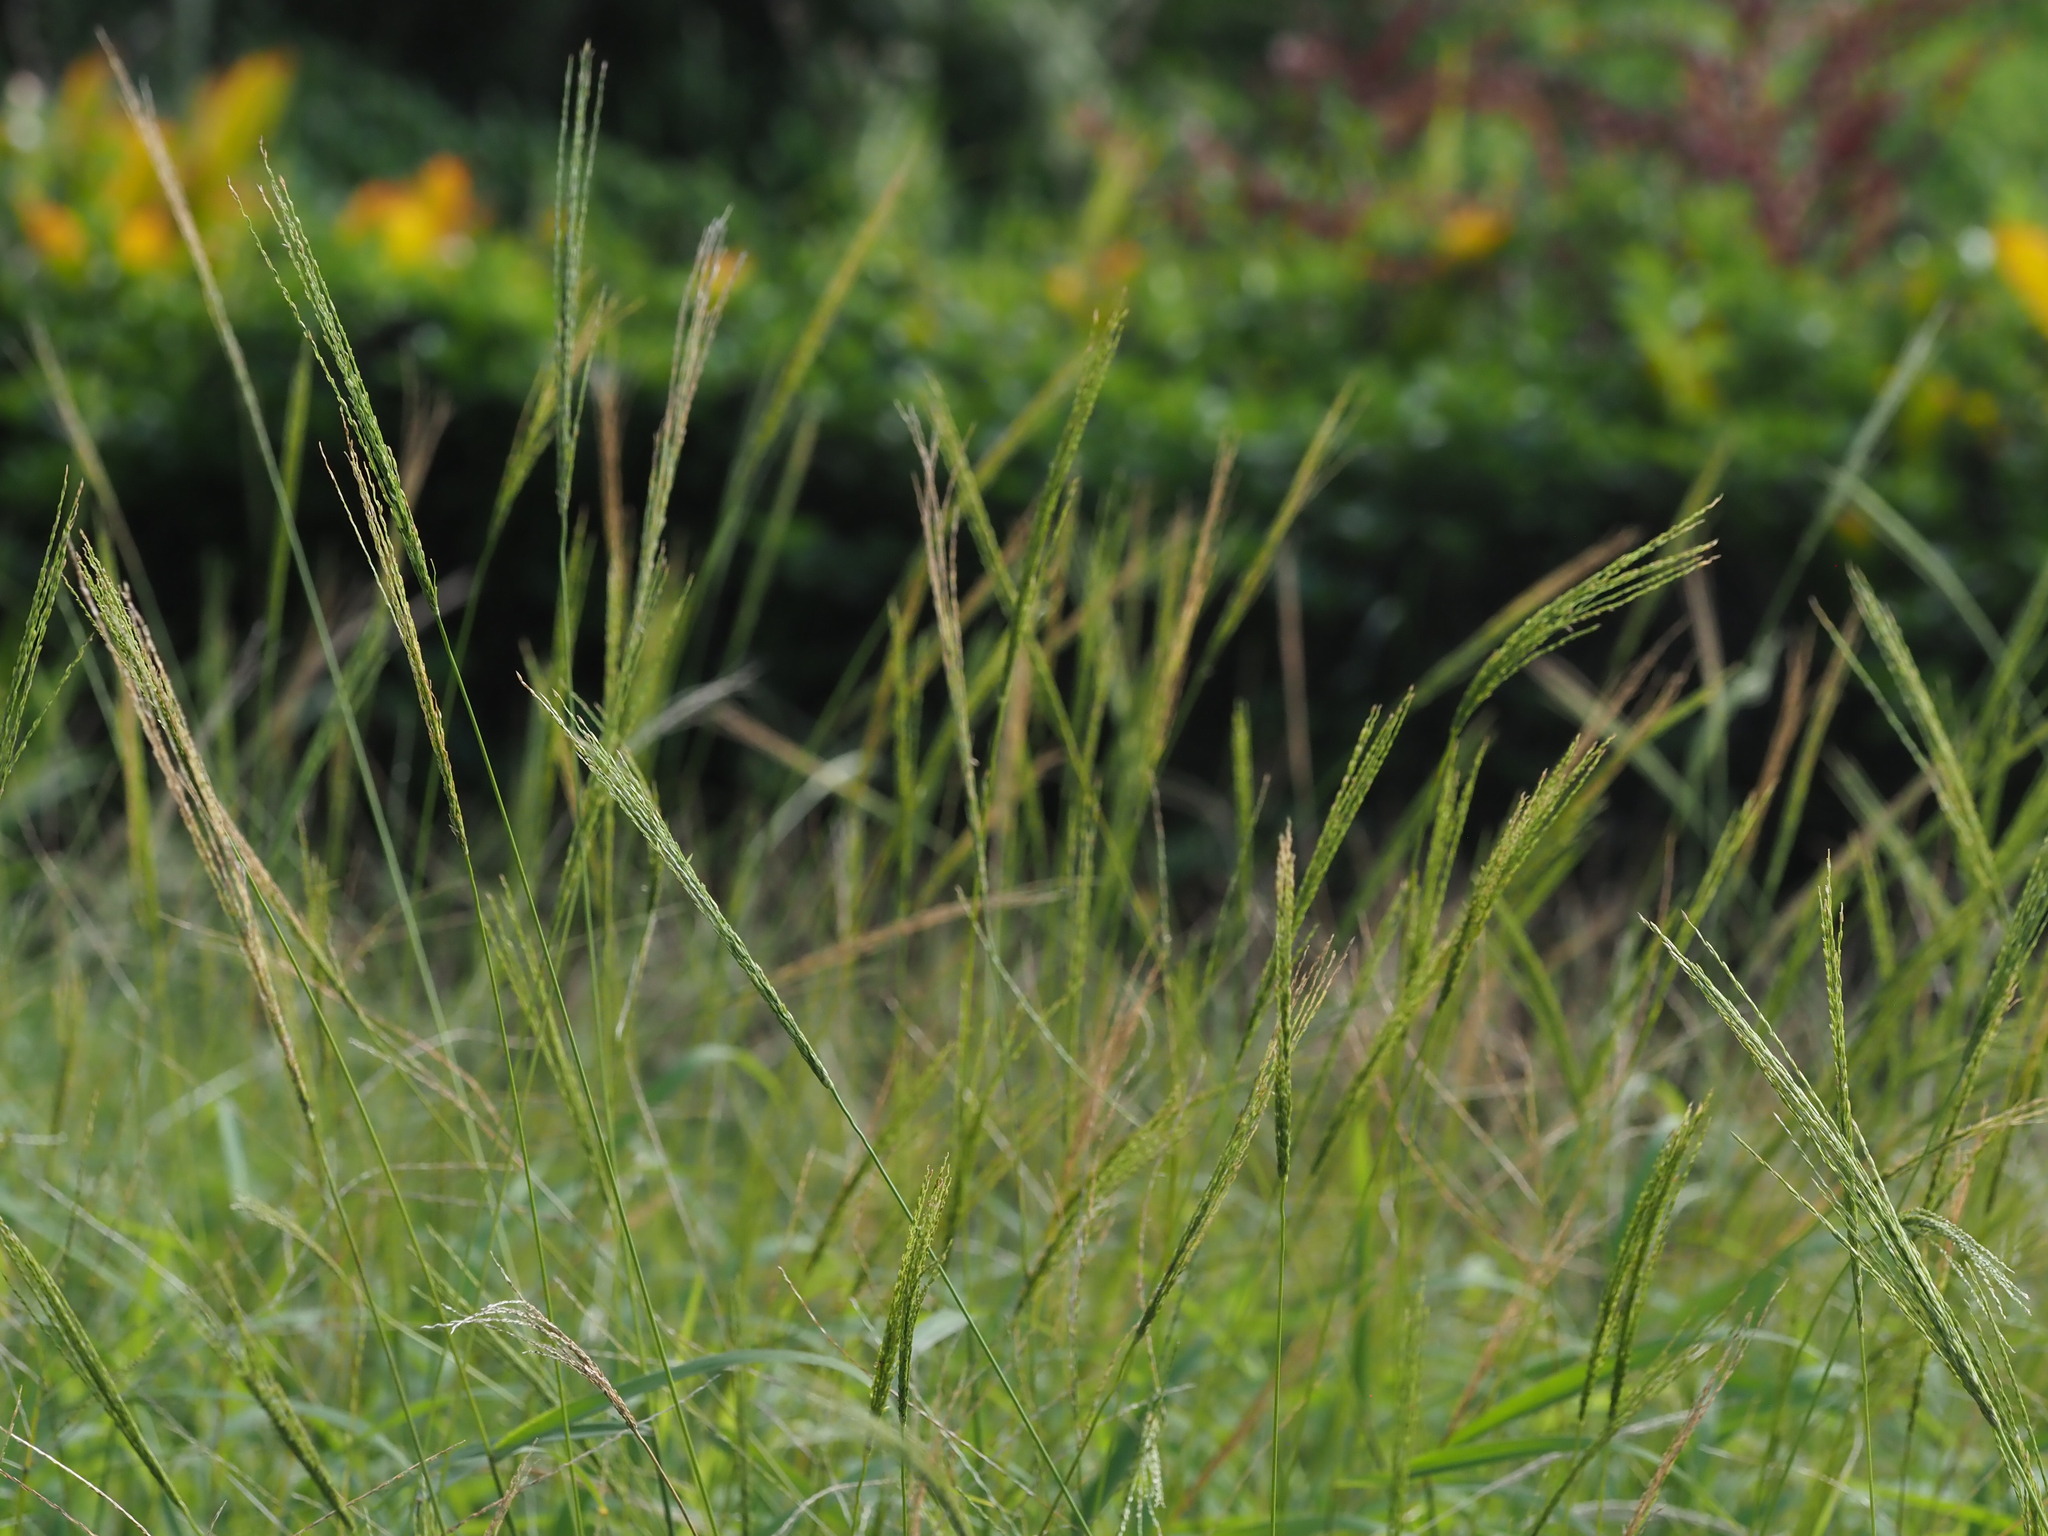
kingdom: Plantae
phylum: Tracheophyta
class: Liliopsida
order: Poales
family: Poaceae
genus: Digitaria
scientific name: Digitaria setigera
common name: East indian crabgrass
